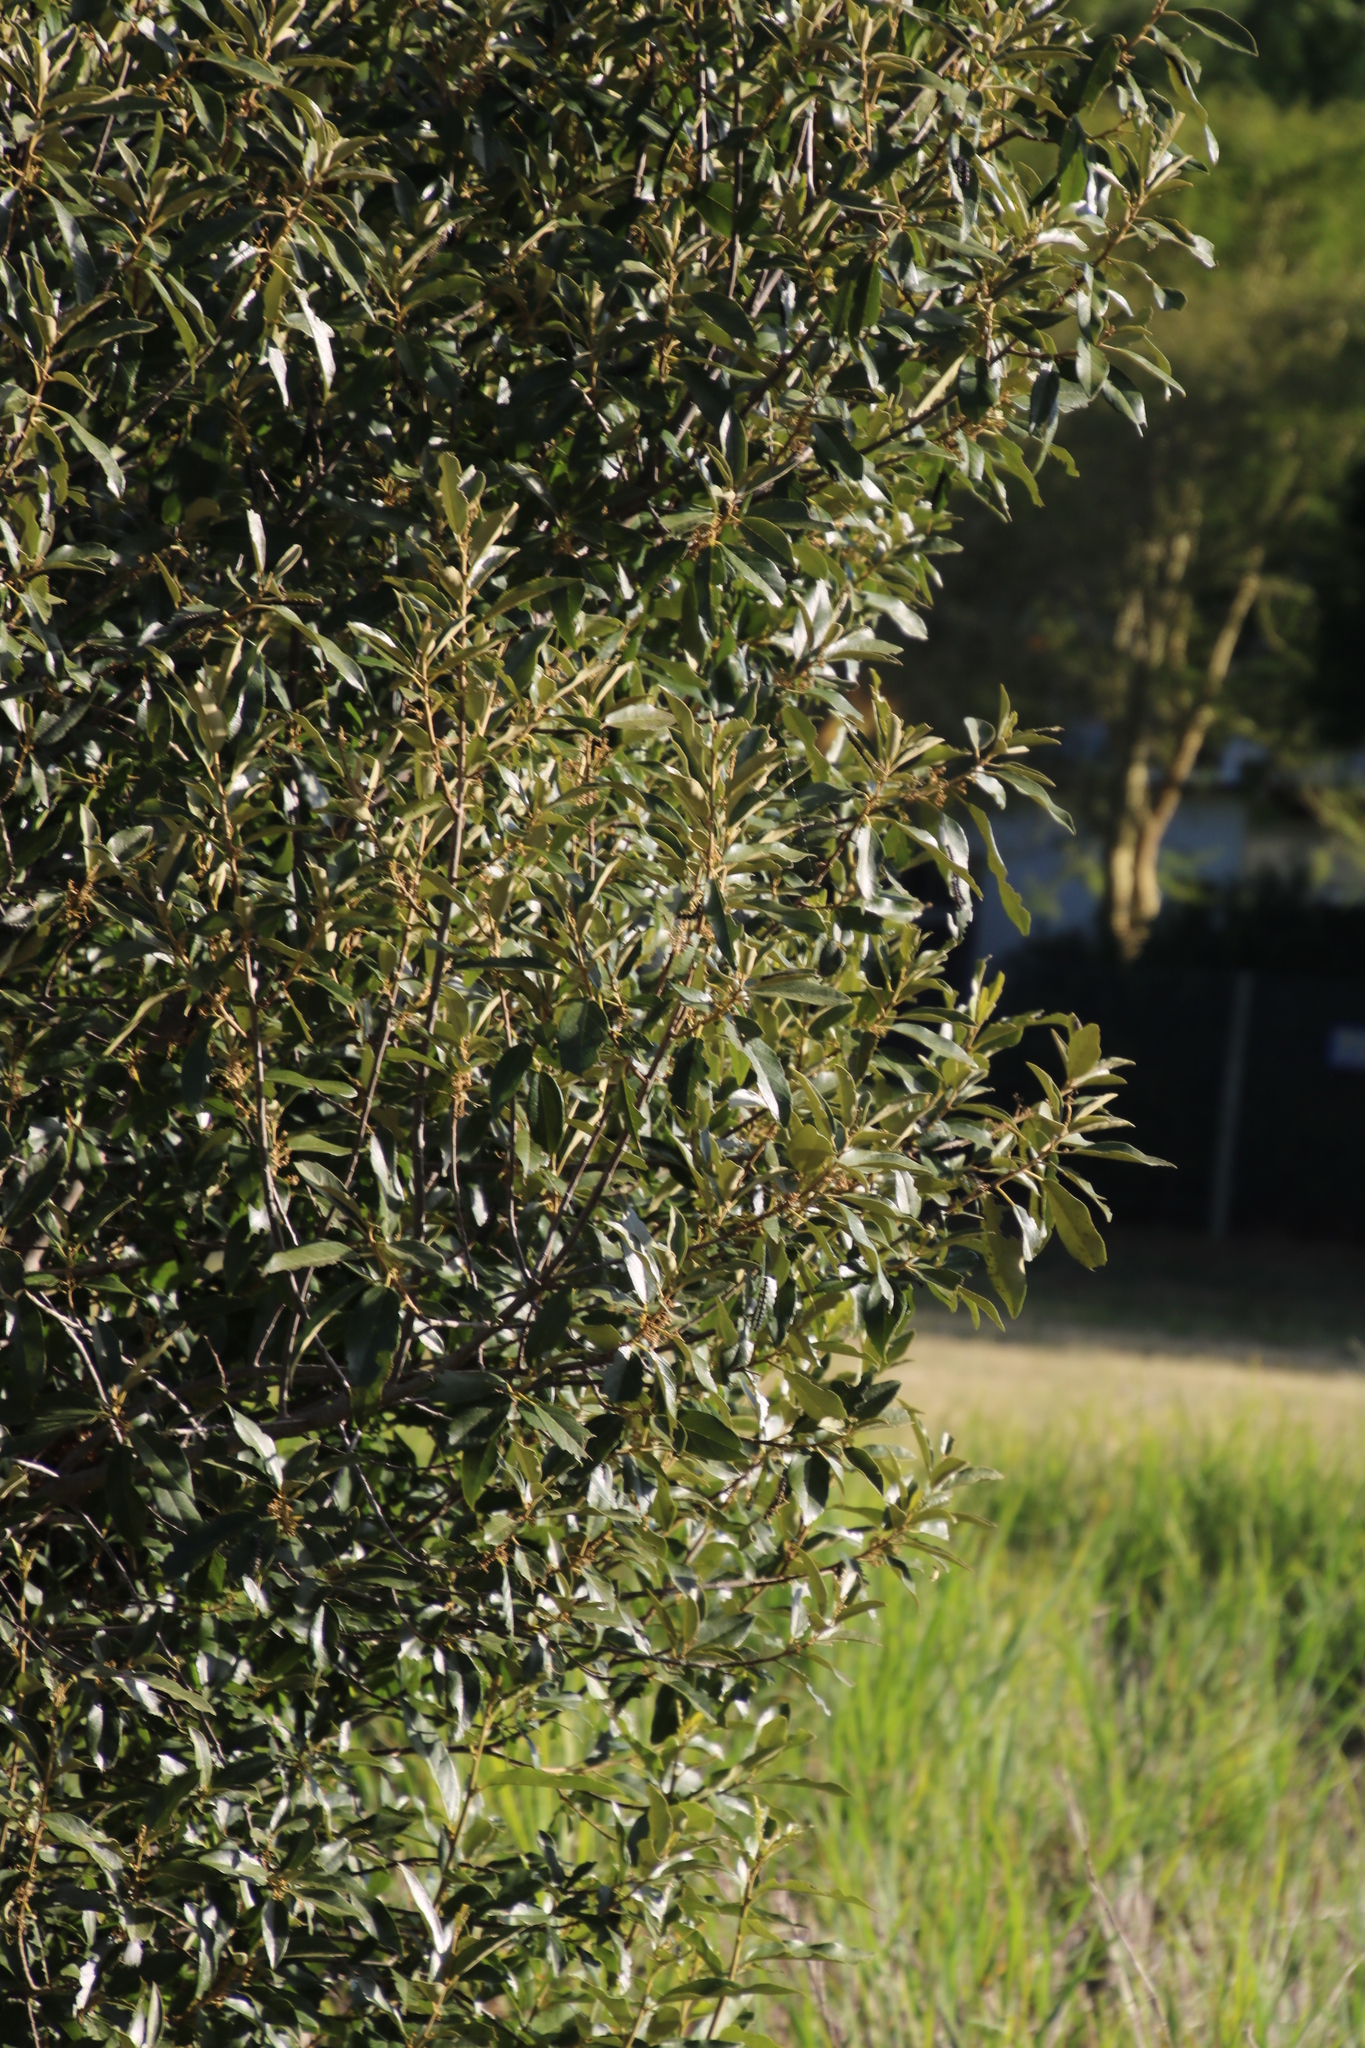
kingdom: Plantae
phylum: Tracheophyta
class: Magnoliopsida
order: Malpighiales
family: Achariaceae
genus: Kiggelaria
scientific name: Kiggelaria africana
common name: Wild peach
